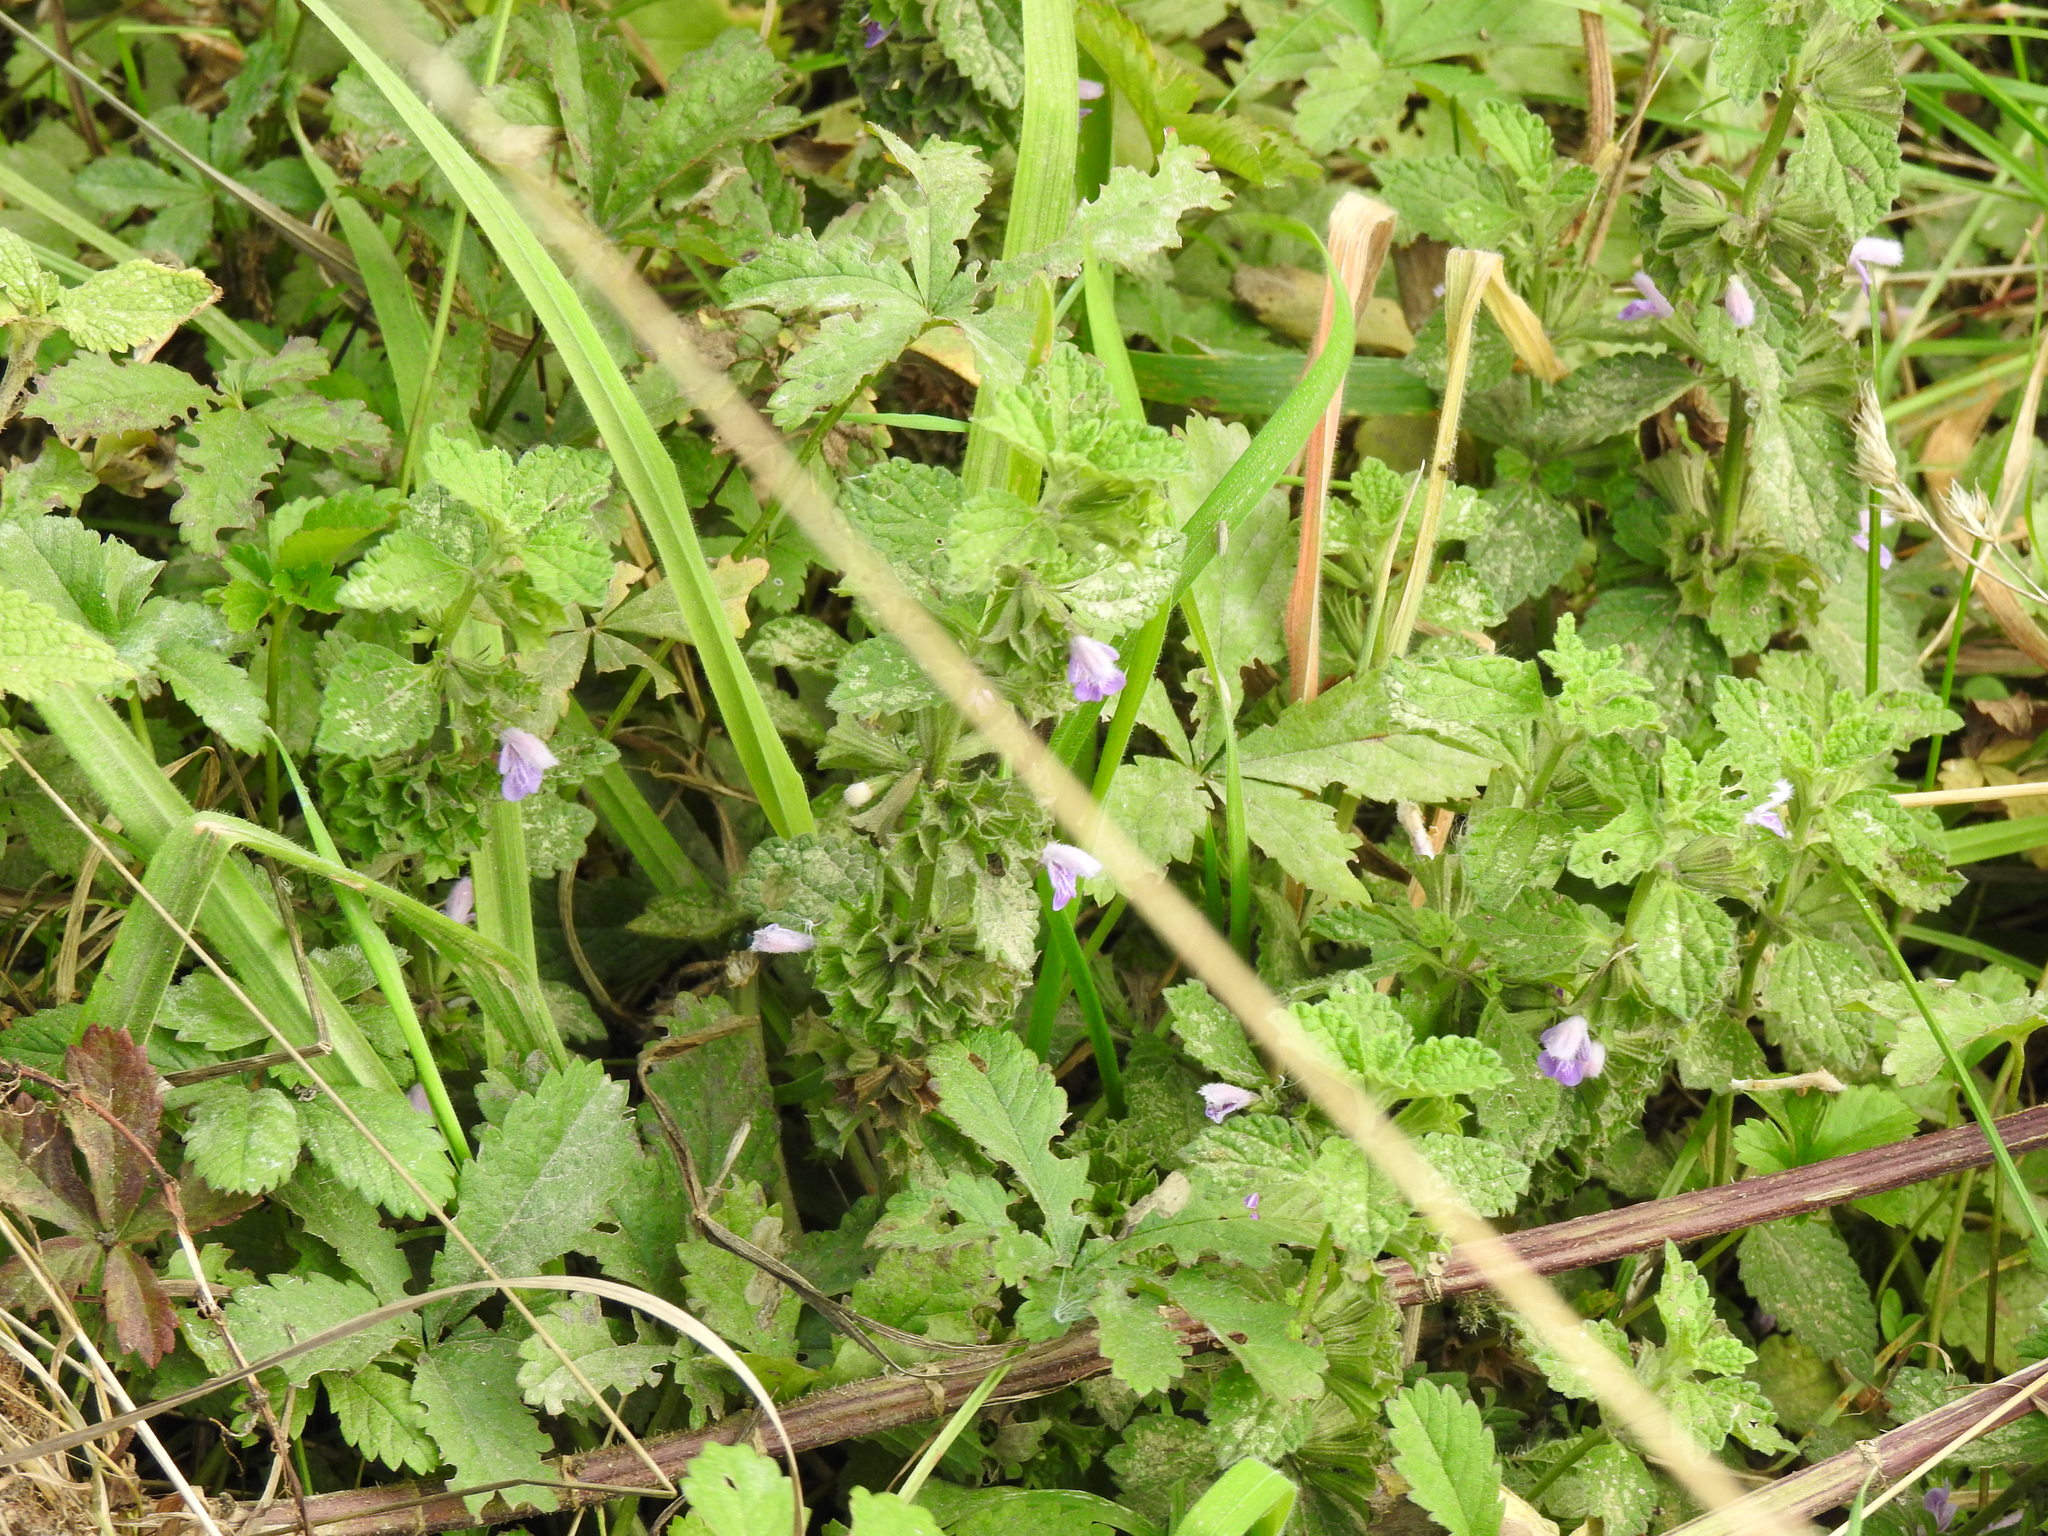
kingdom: Plantae
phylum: Tracheophyta
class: Magnoliopsida
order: Lamiales
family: Lamiaceae
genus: Ballota
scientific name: Ballota nigra
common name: Black horehound
